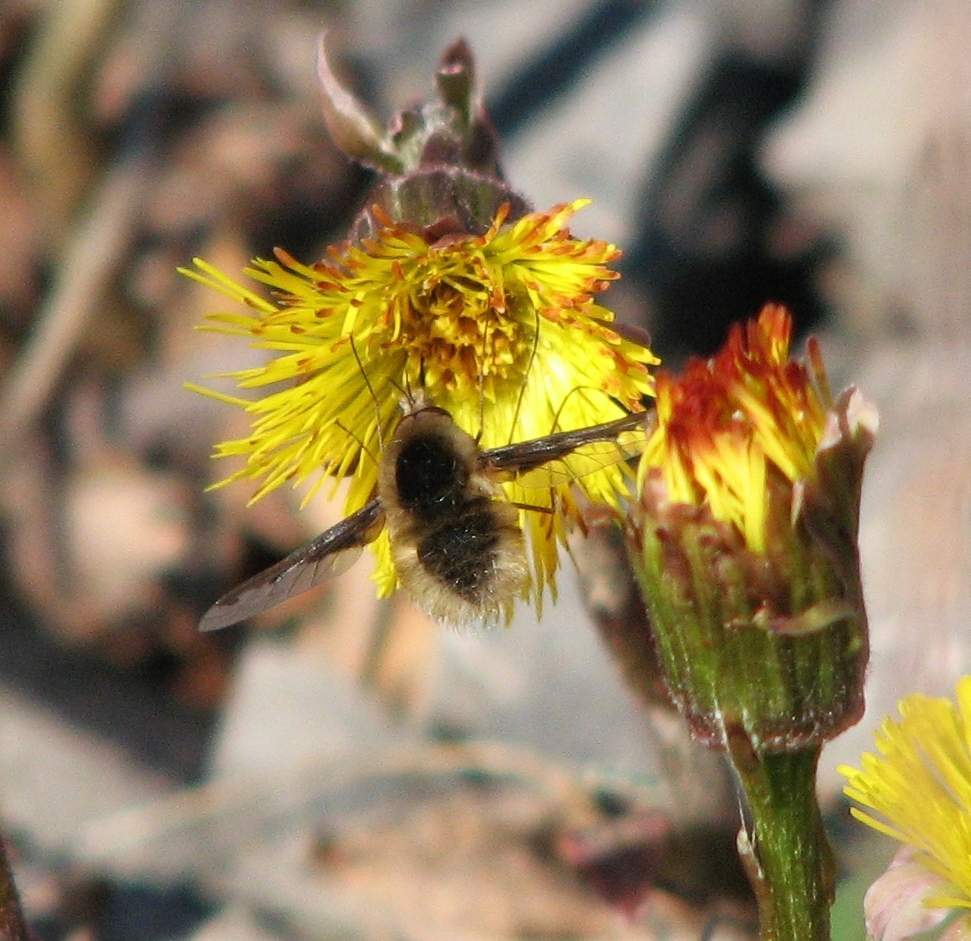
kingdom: Animalia
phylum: Arthropoda
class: Insecta
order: Diptera
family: Bombyliidae
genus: Bombylius
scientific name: Bombylius major
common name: Bee fly
